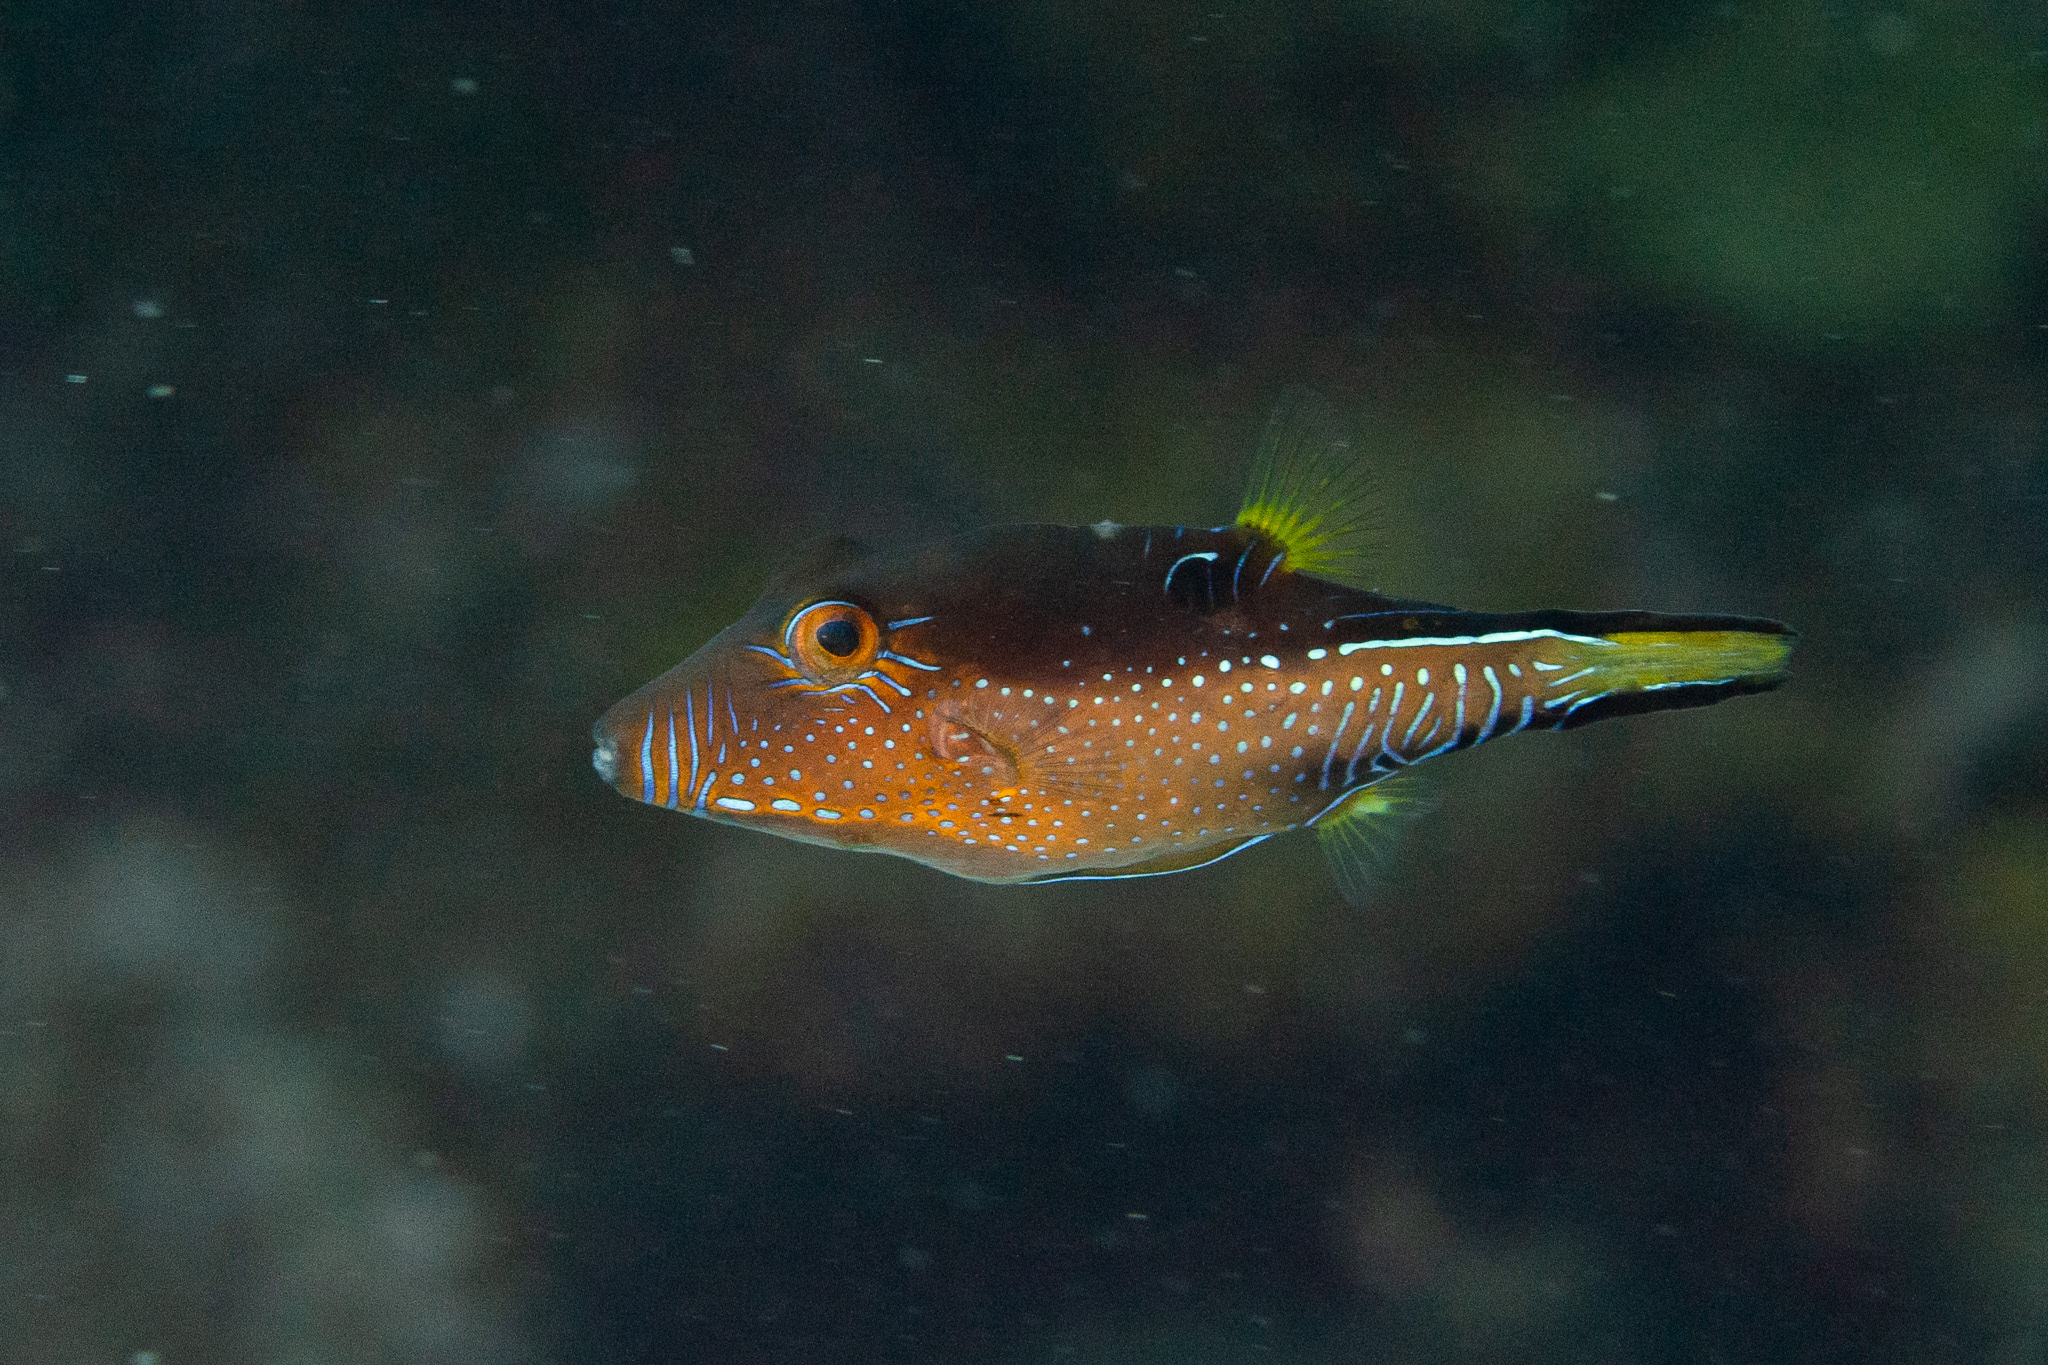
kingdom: Animalia
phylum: Chordata
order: Tetraodontiformes
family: Tetraodontidae
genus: Canthigaster
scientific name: Canthigaster rostrata
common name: Caribbean sharpnose-puffer
